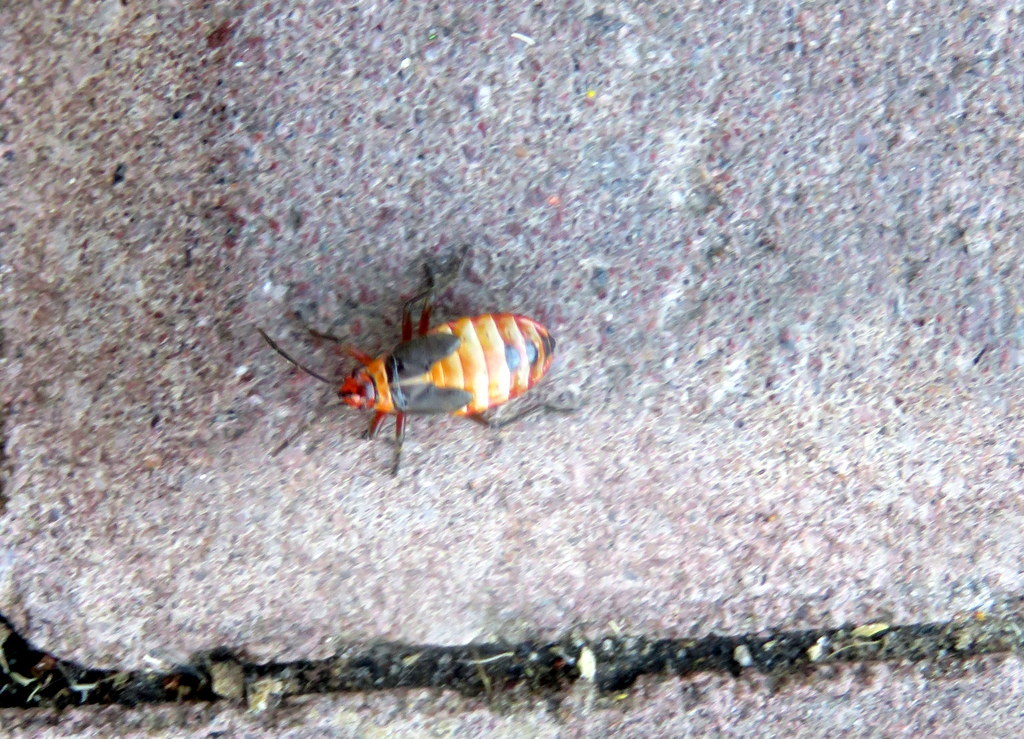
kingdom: Animalia
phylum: Arthropoda
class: Insecta
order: Hemiptera
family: Lygaeidae
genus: Oncopeltus
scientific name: Oncopeltus unifasciatellus
